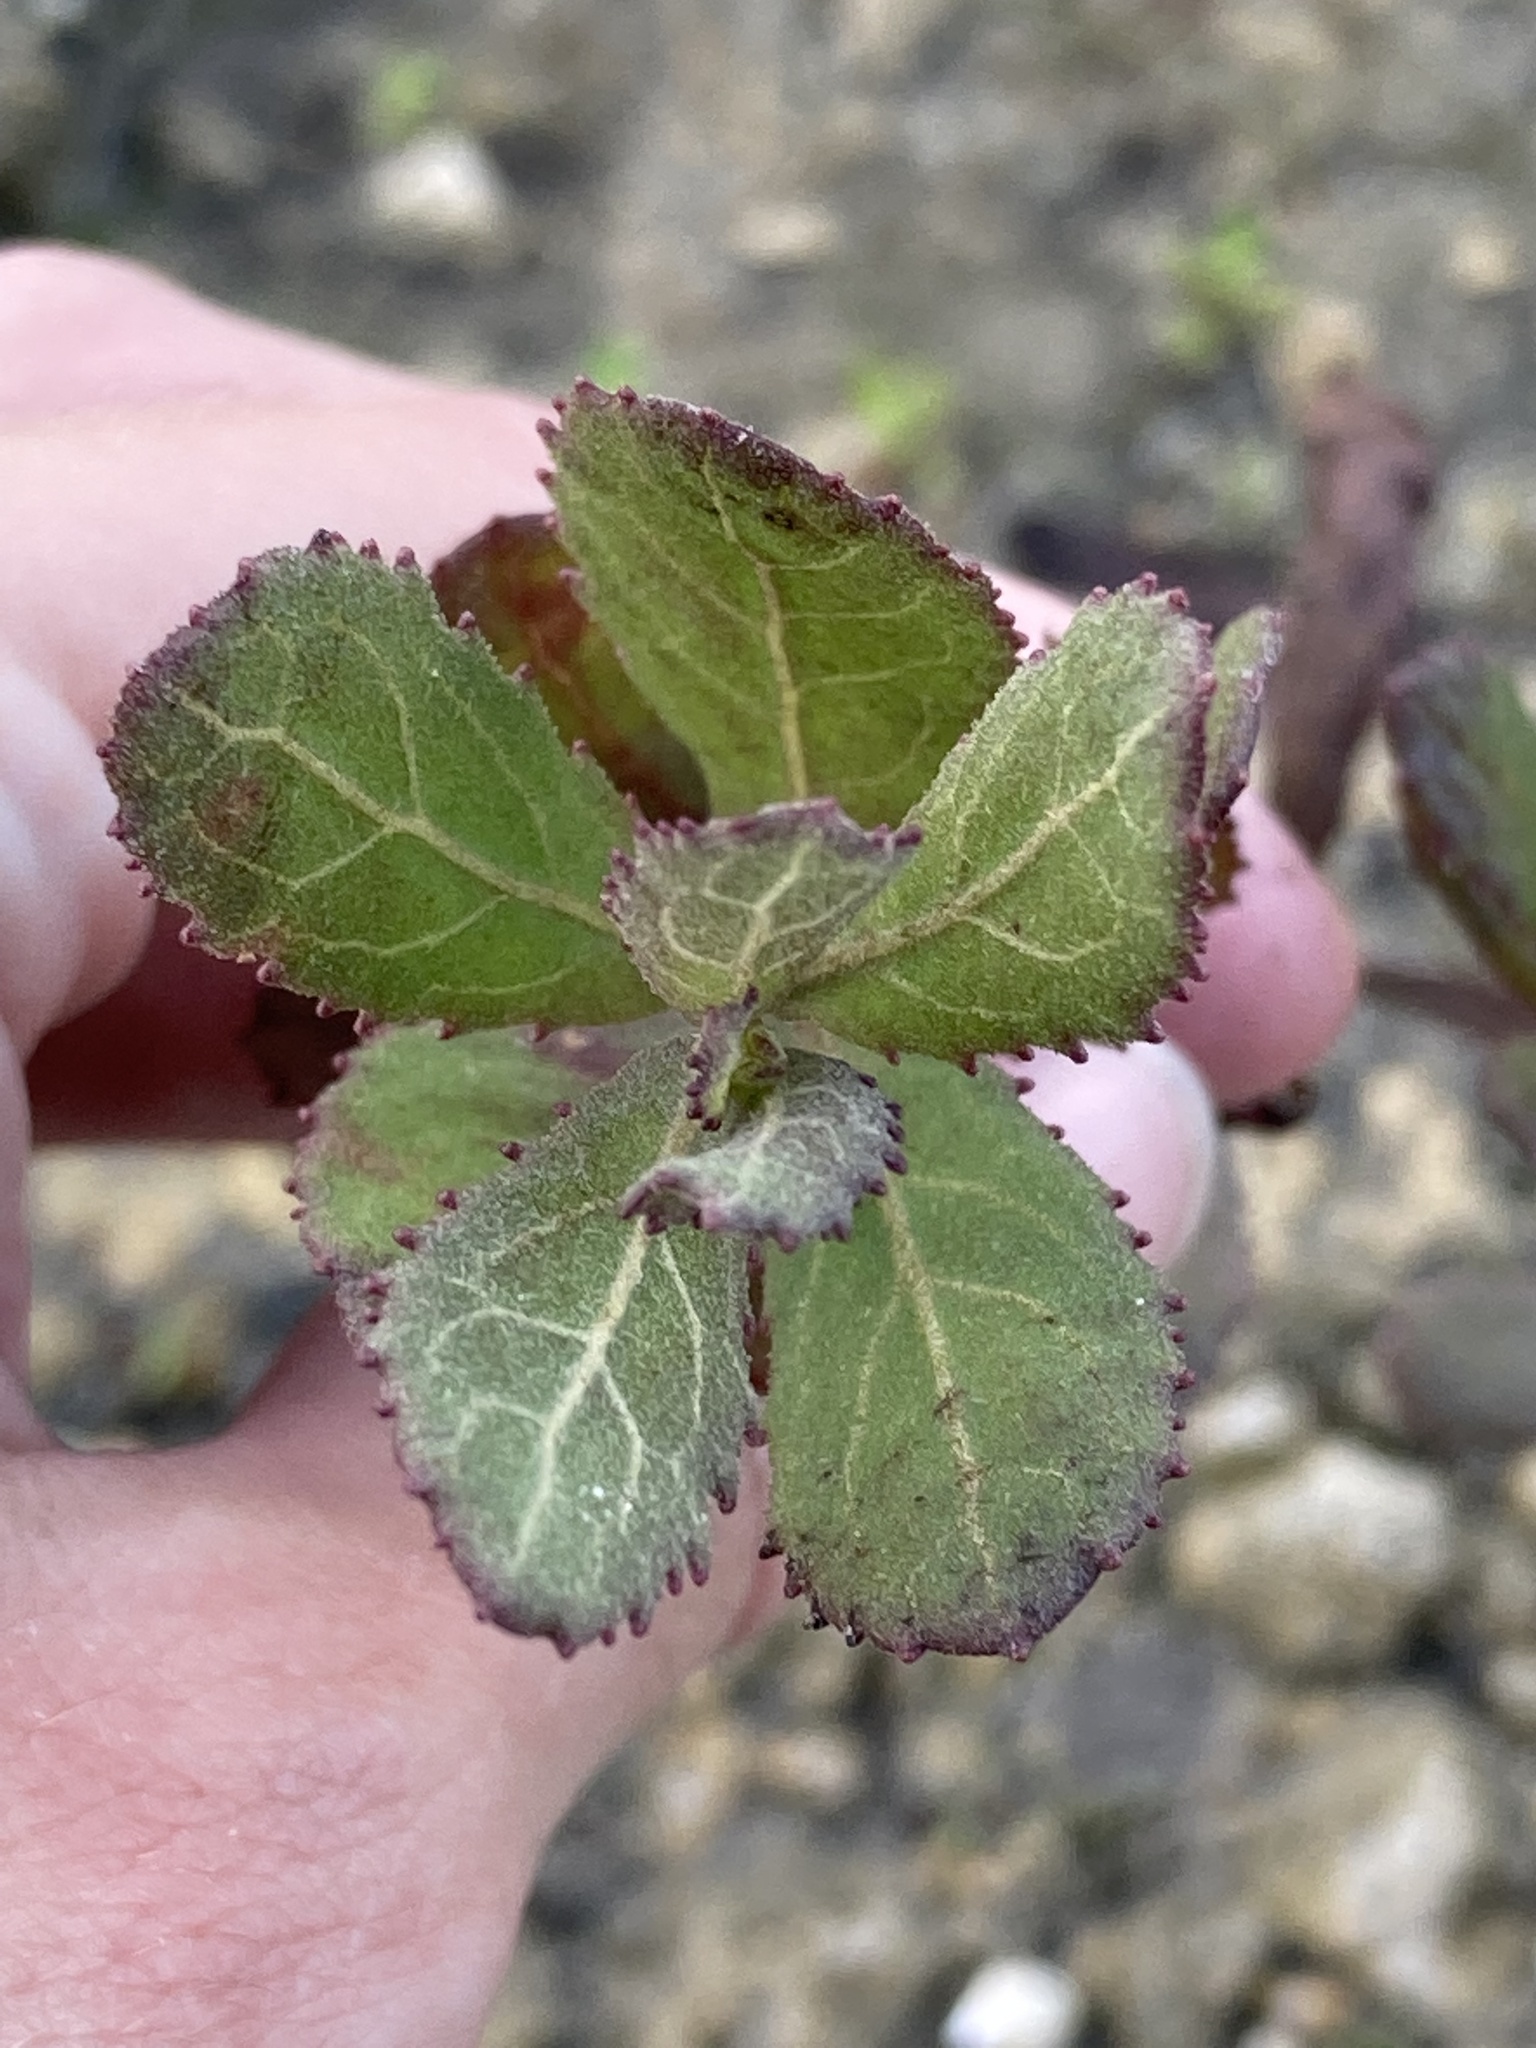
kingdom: Plantae
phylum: Tracheophyta
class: Magnoliopsida
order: Asterales
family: Asteraceae
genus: Pluchea
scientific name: Pluchea baccharis
